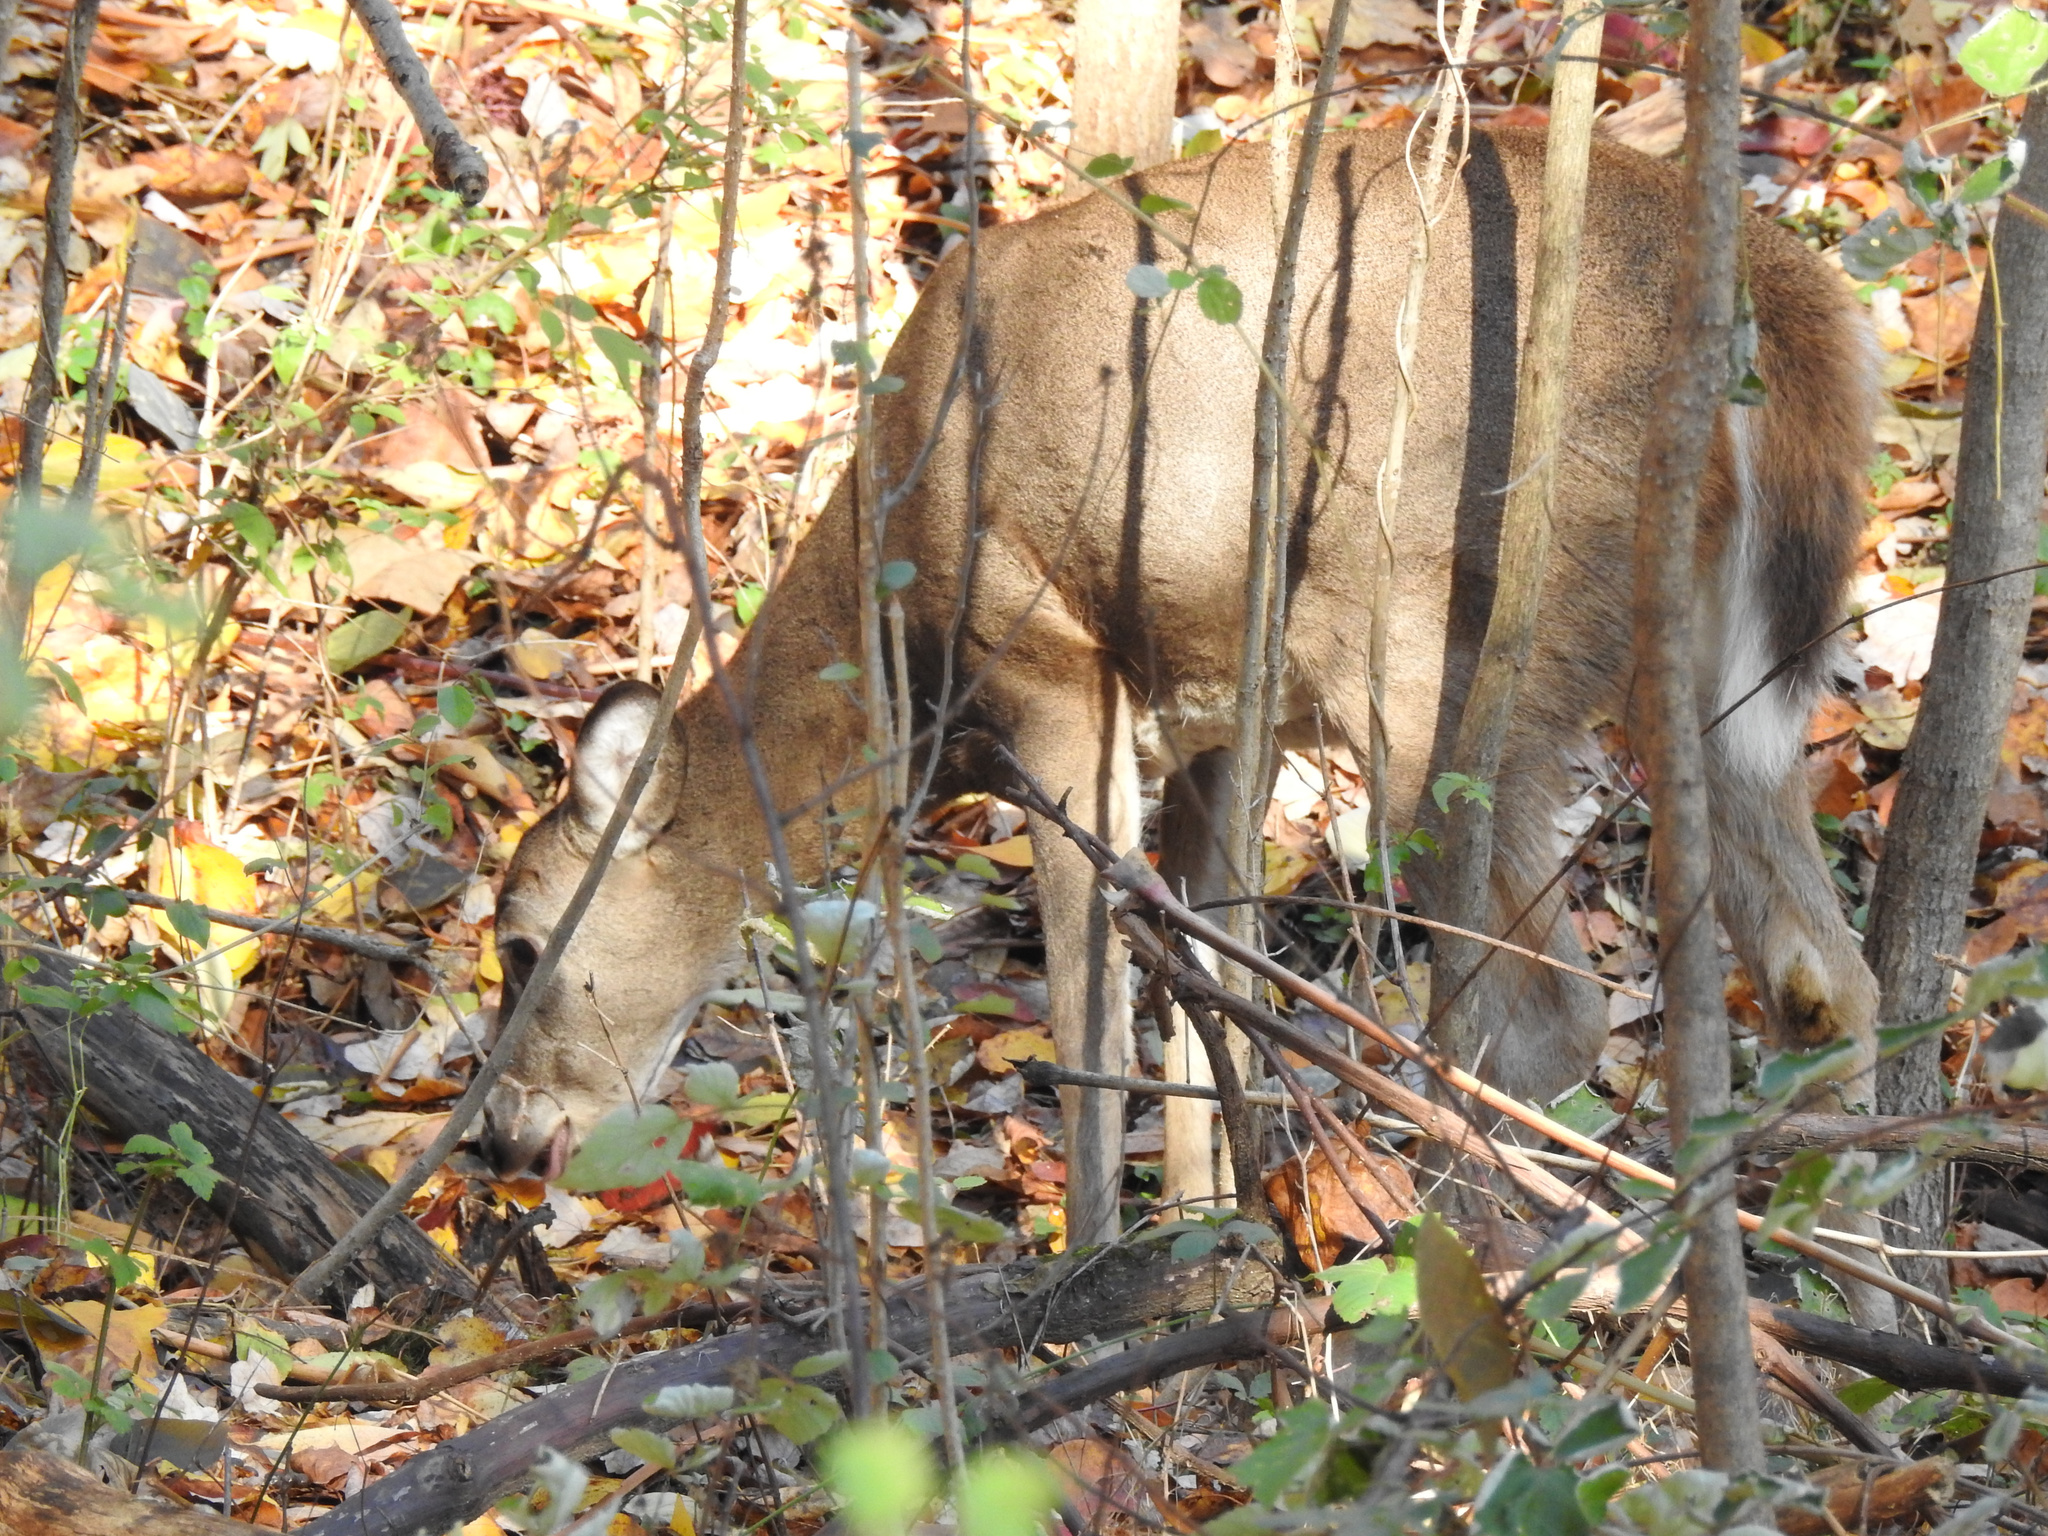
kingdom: Animalia
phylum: Chordata
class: Mammalia
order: Artiodactyla
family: Cervidae
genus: Odocoileus
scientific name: Odocoileus virginianus
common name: White-tailed deer
